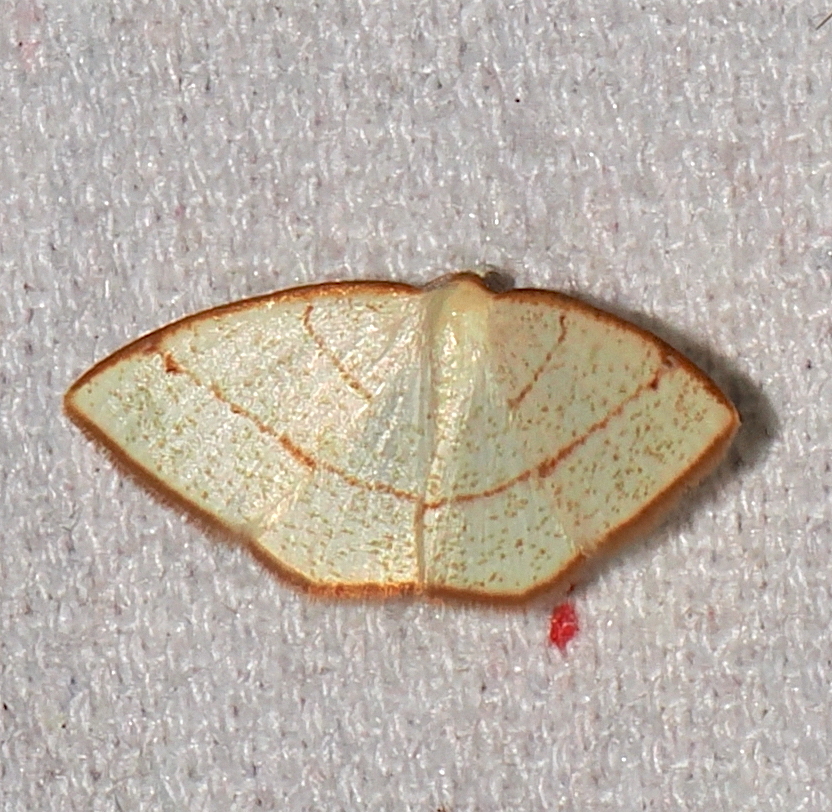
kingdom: Animalia
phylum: Arthropoda
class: Insecta
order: Lepidoptera
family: Geometridae
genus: Microxydia
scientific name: Microxydia ruficomma
